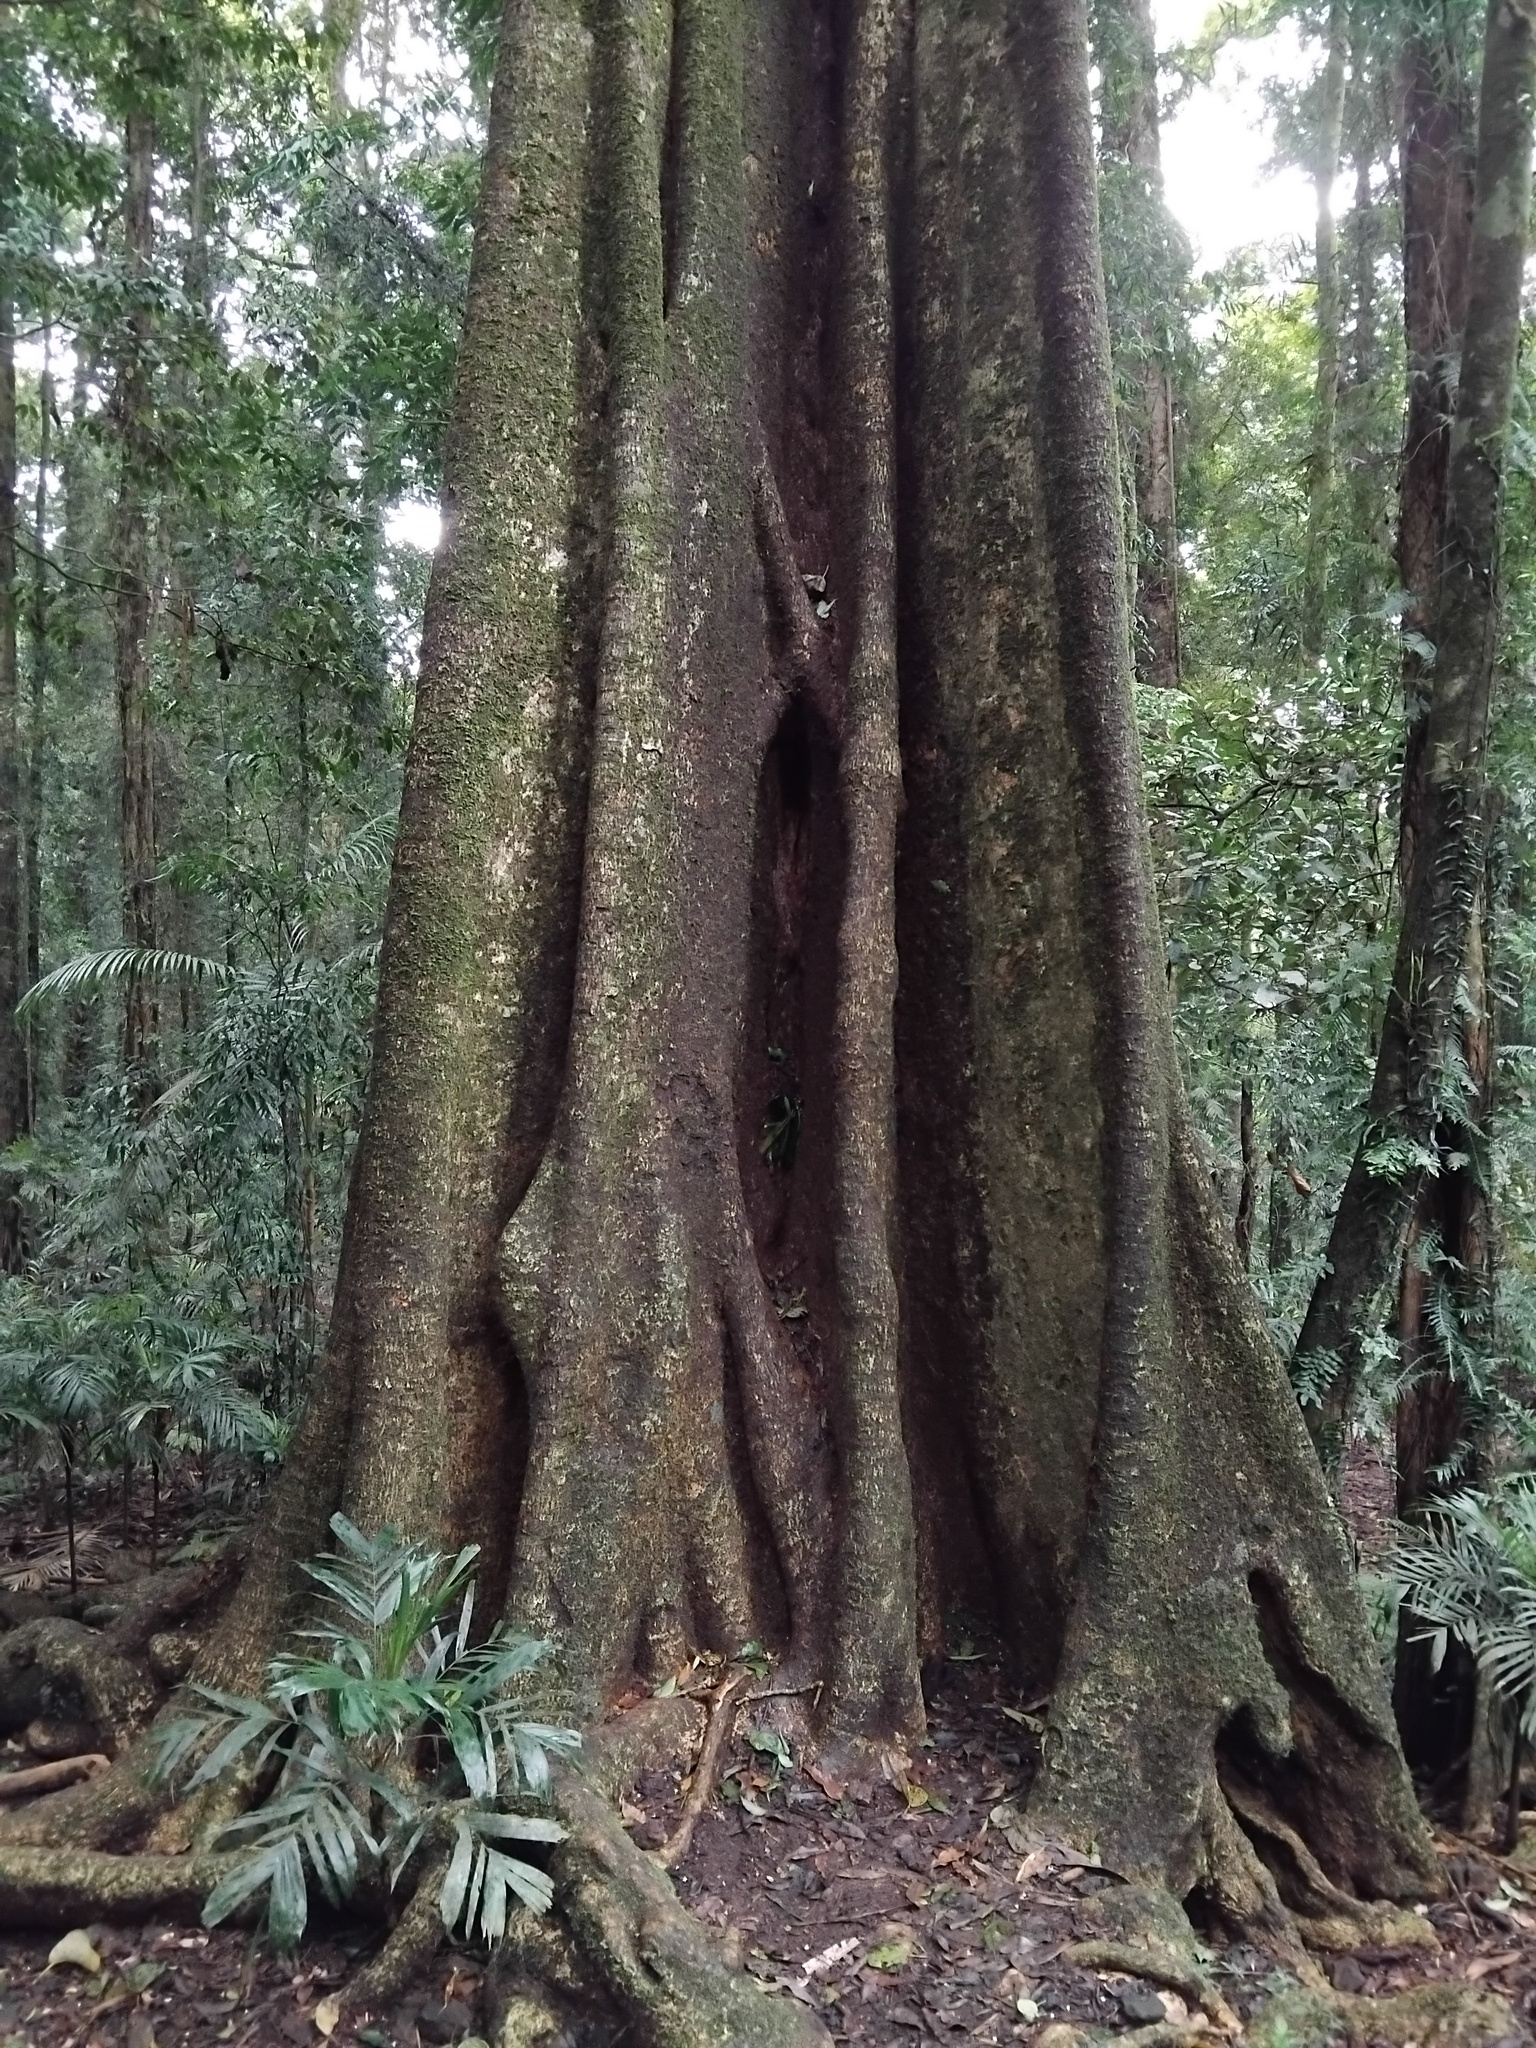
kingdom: Plantae
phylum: Tracheophyta
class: Magnoliopsida
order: Rosales
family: Urticaceae
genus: Dendrocnide
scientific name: Dendrocnide excelsa
